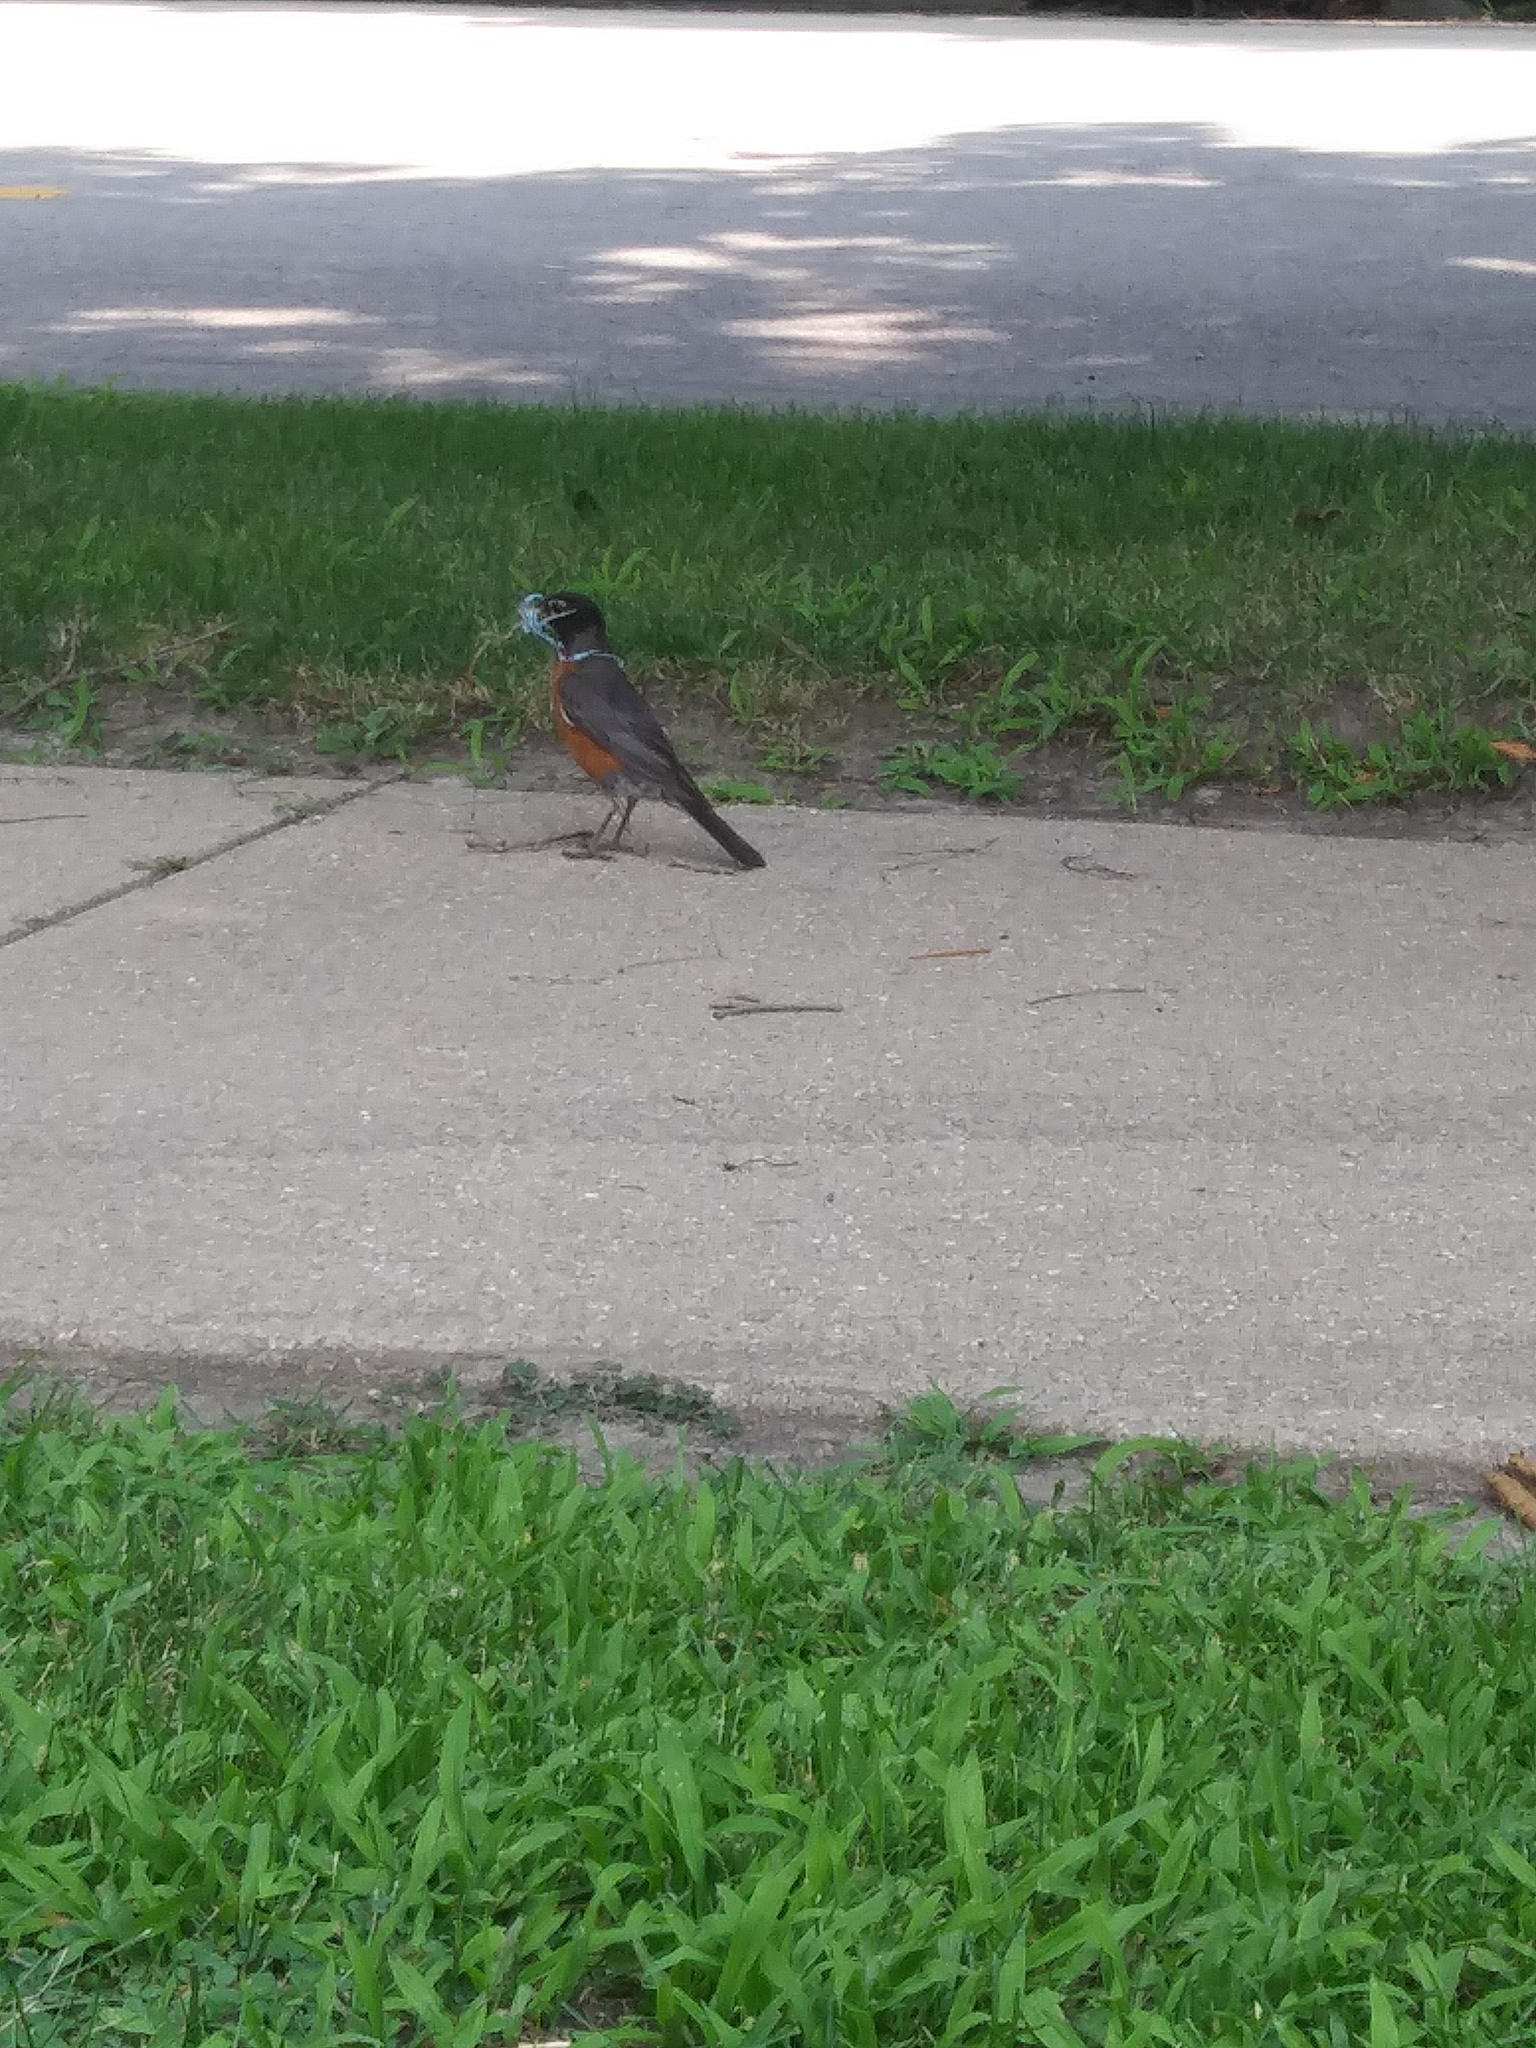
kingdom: Animalia
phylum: Chordata
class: Aves
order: Passeriformes
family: Turdidae
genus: Turdus
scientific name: Turdus migratorius
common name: American robin
